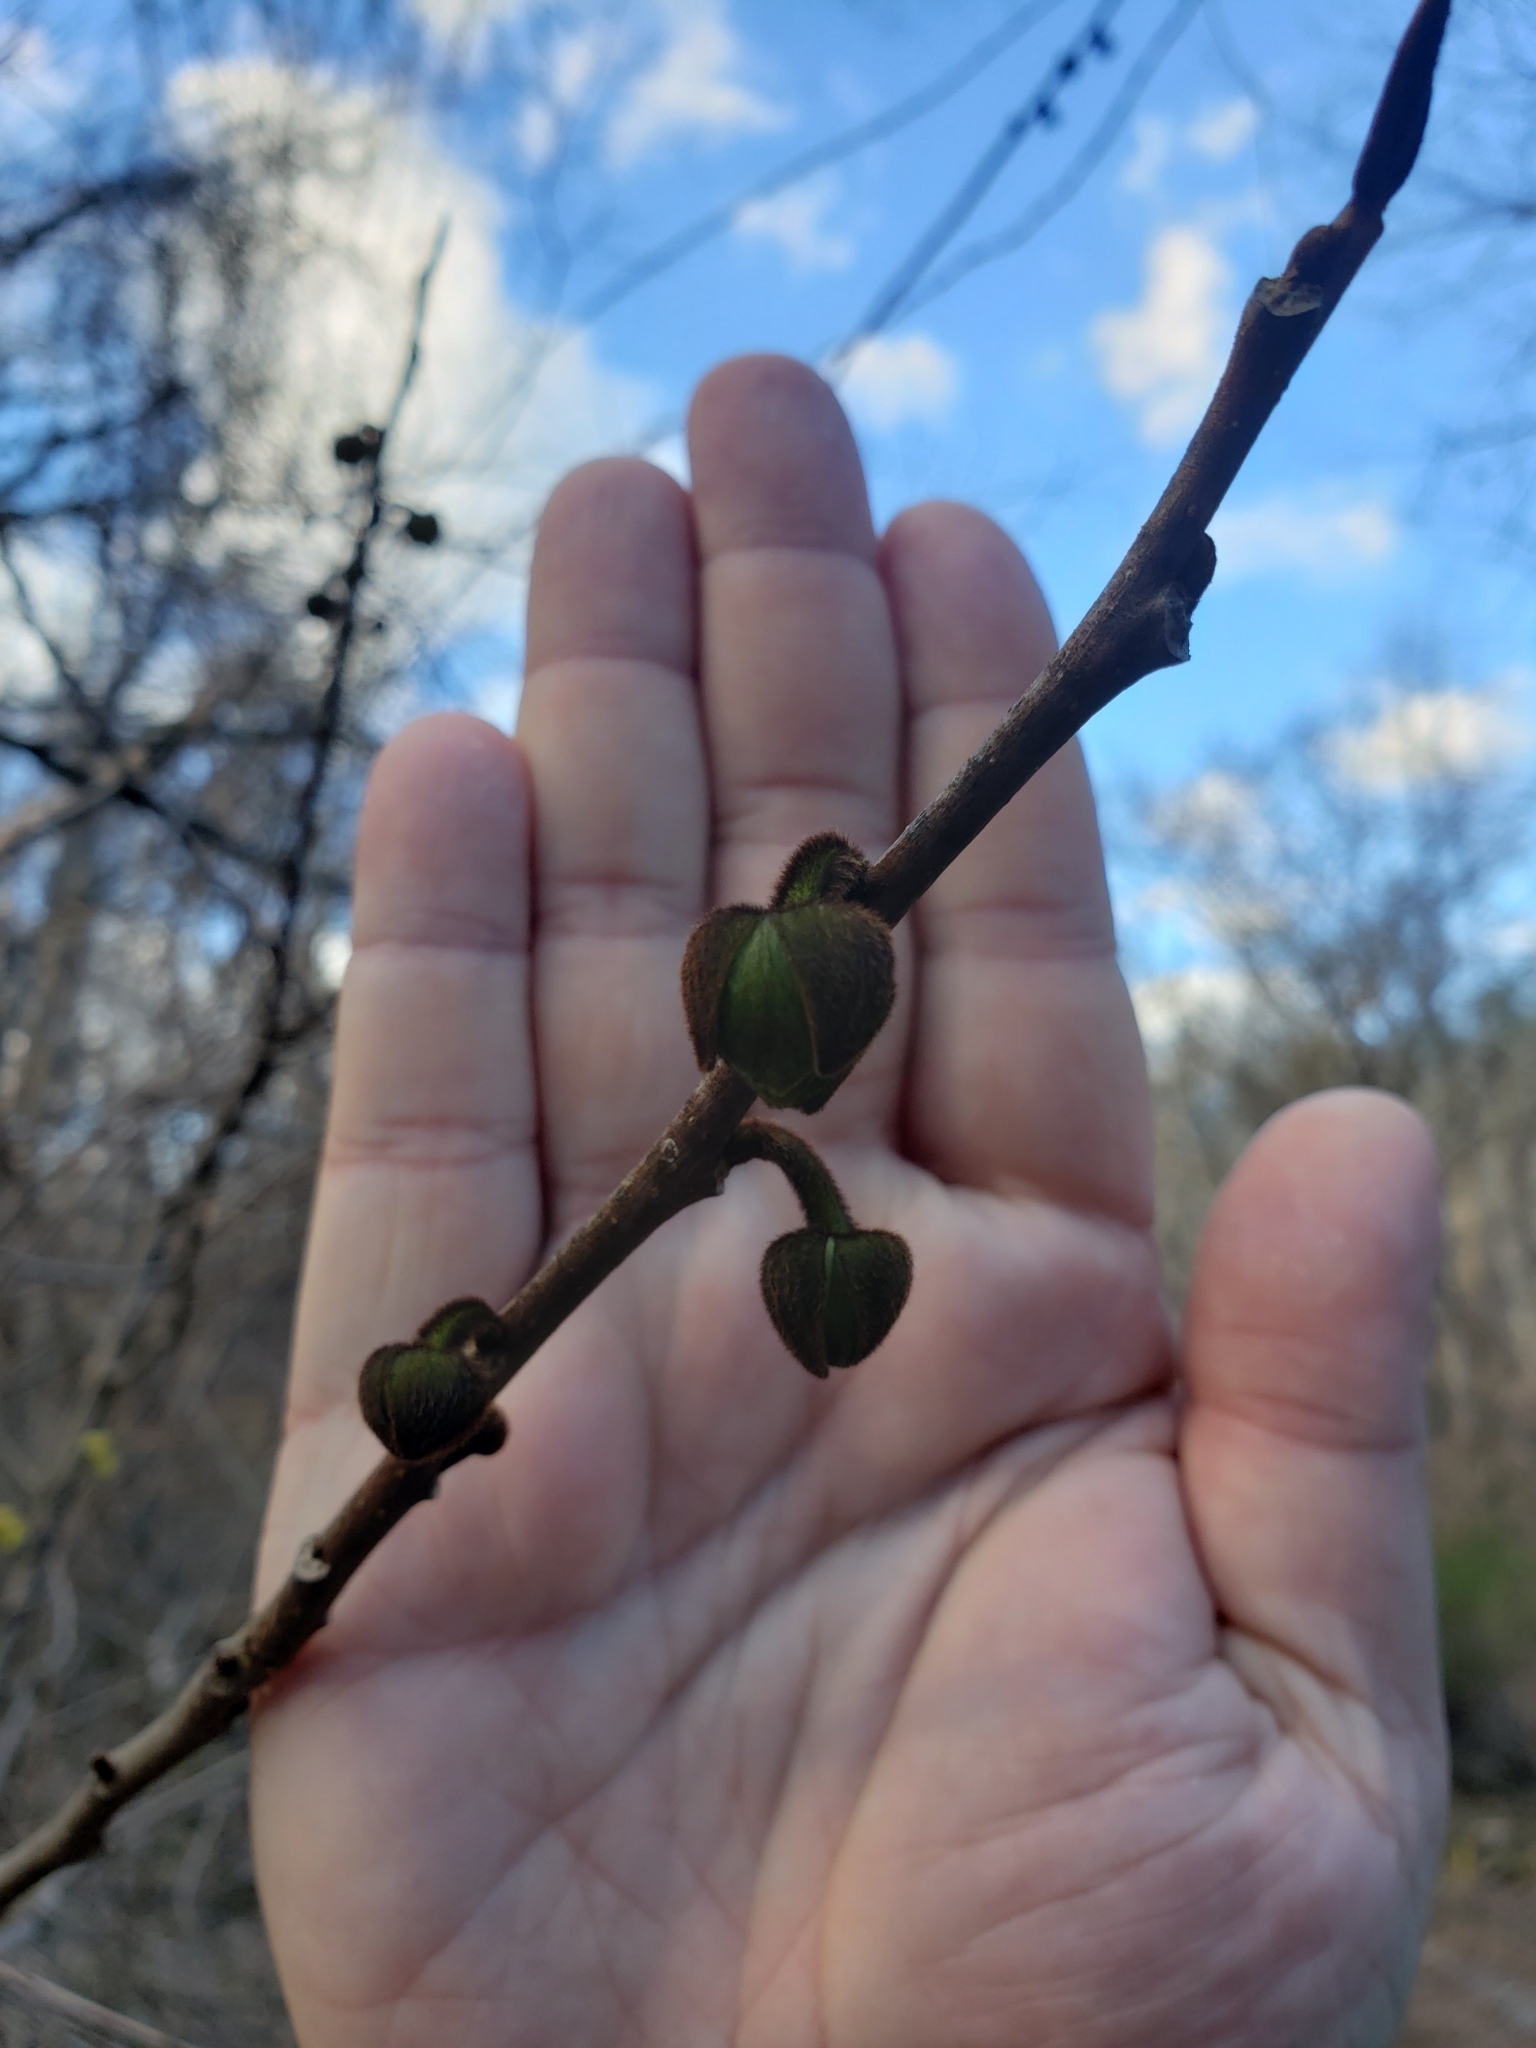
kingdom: Plantae
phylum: Tracheophyta
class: Magnoliopsida
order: Magnoliales
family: Annonaceae
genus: Asimina
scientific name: Asimina triloba
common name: Dog-banana
